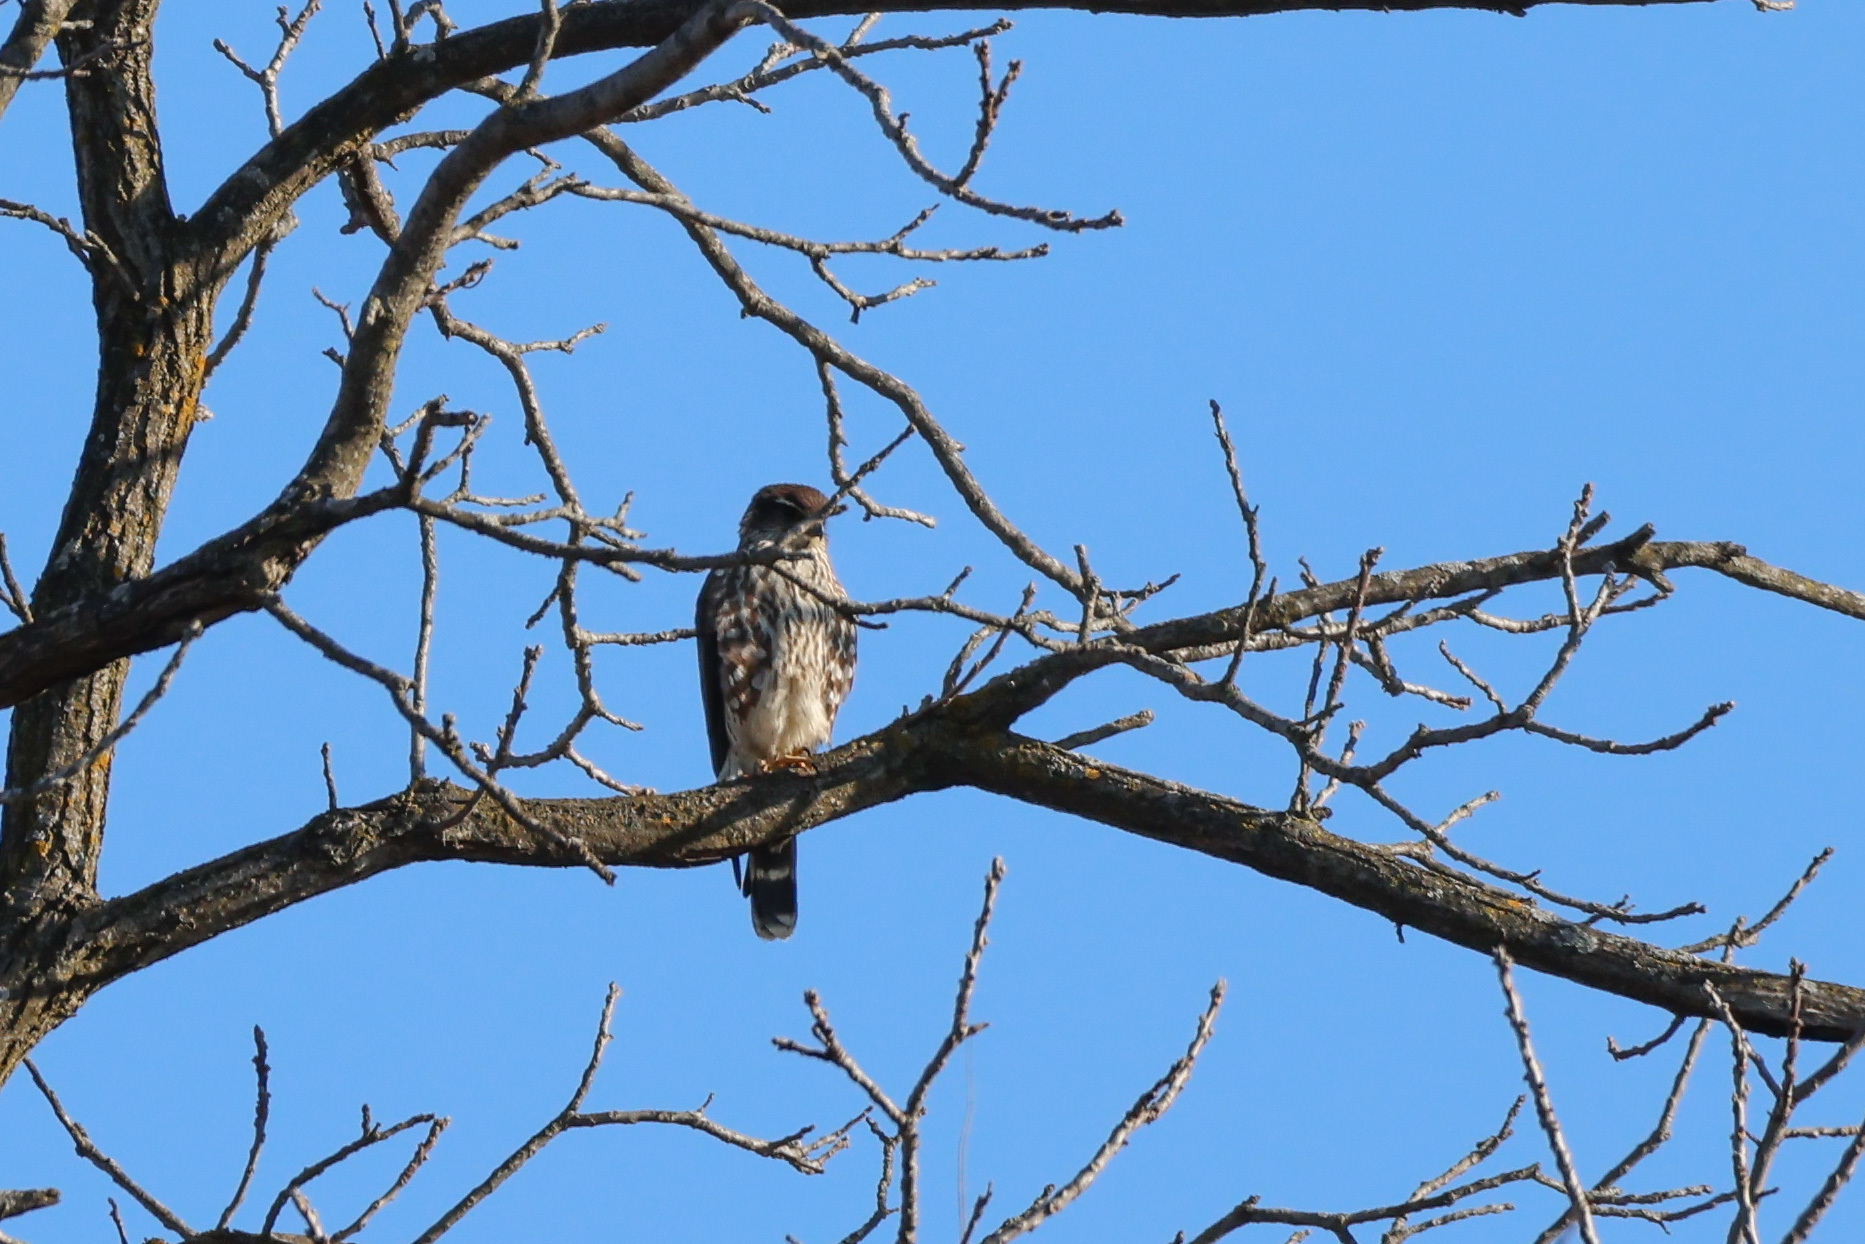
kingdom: Animalia
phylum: Chordata
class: Aves
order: Falconiformes
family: Falconidae
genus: Falco
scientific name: Falco columbarius
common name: Merlin
